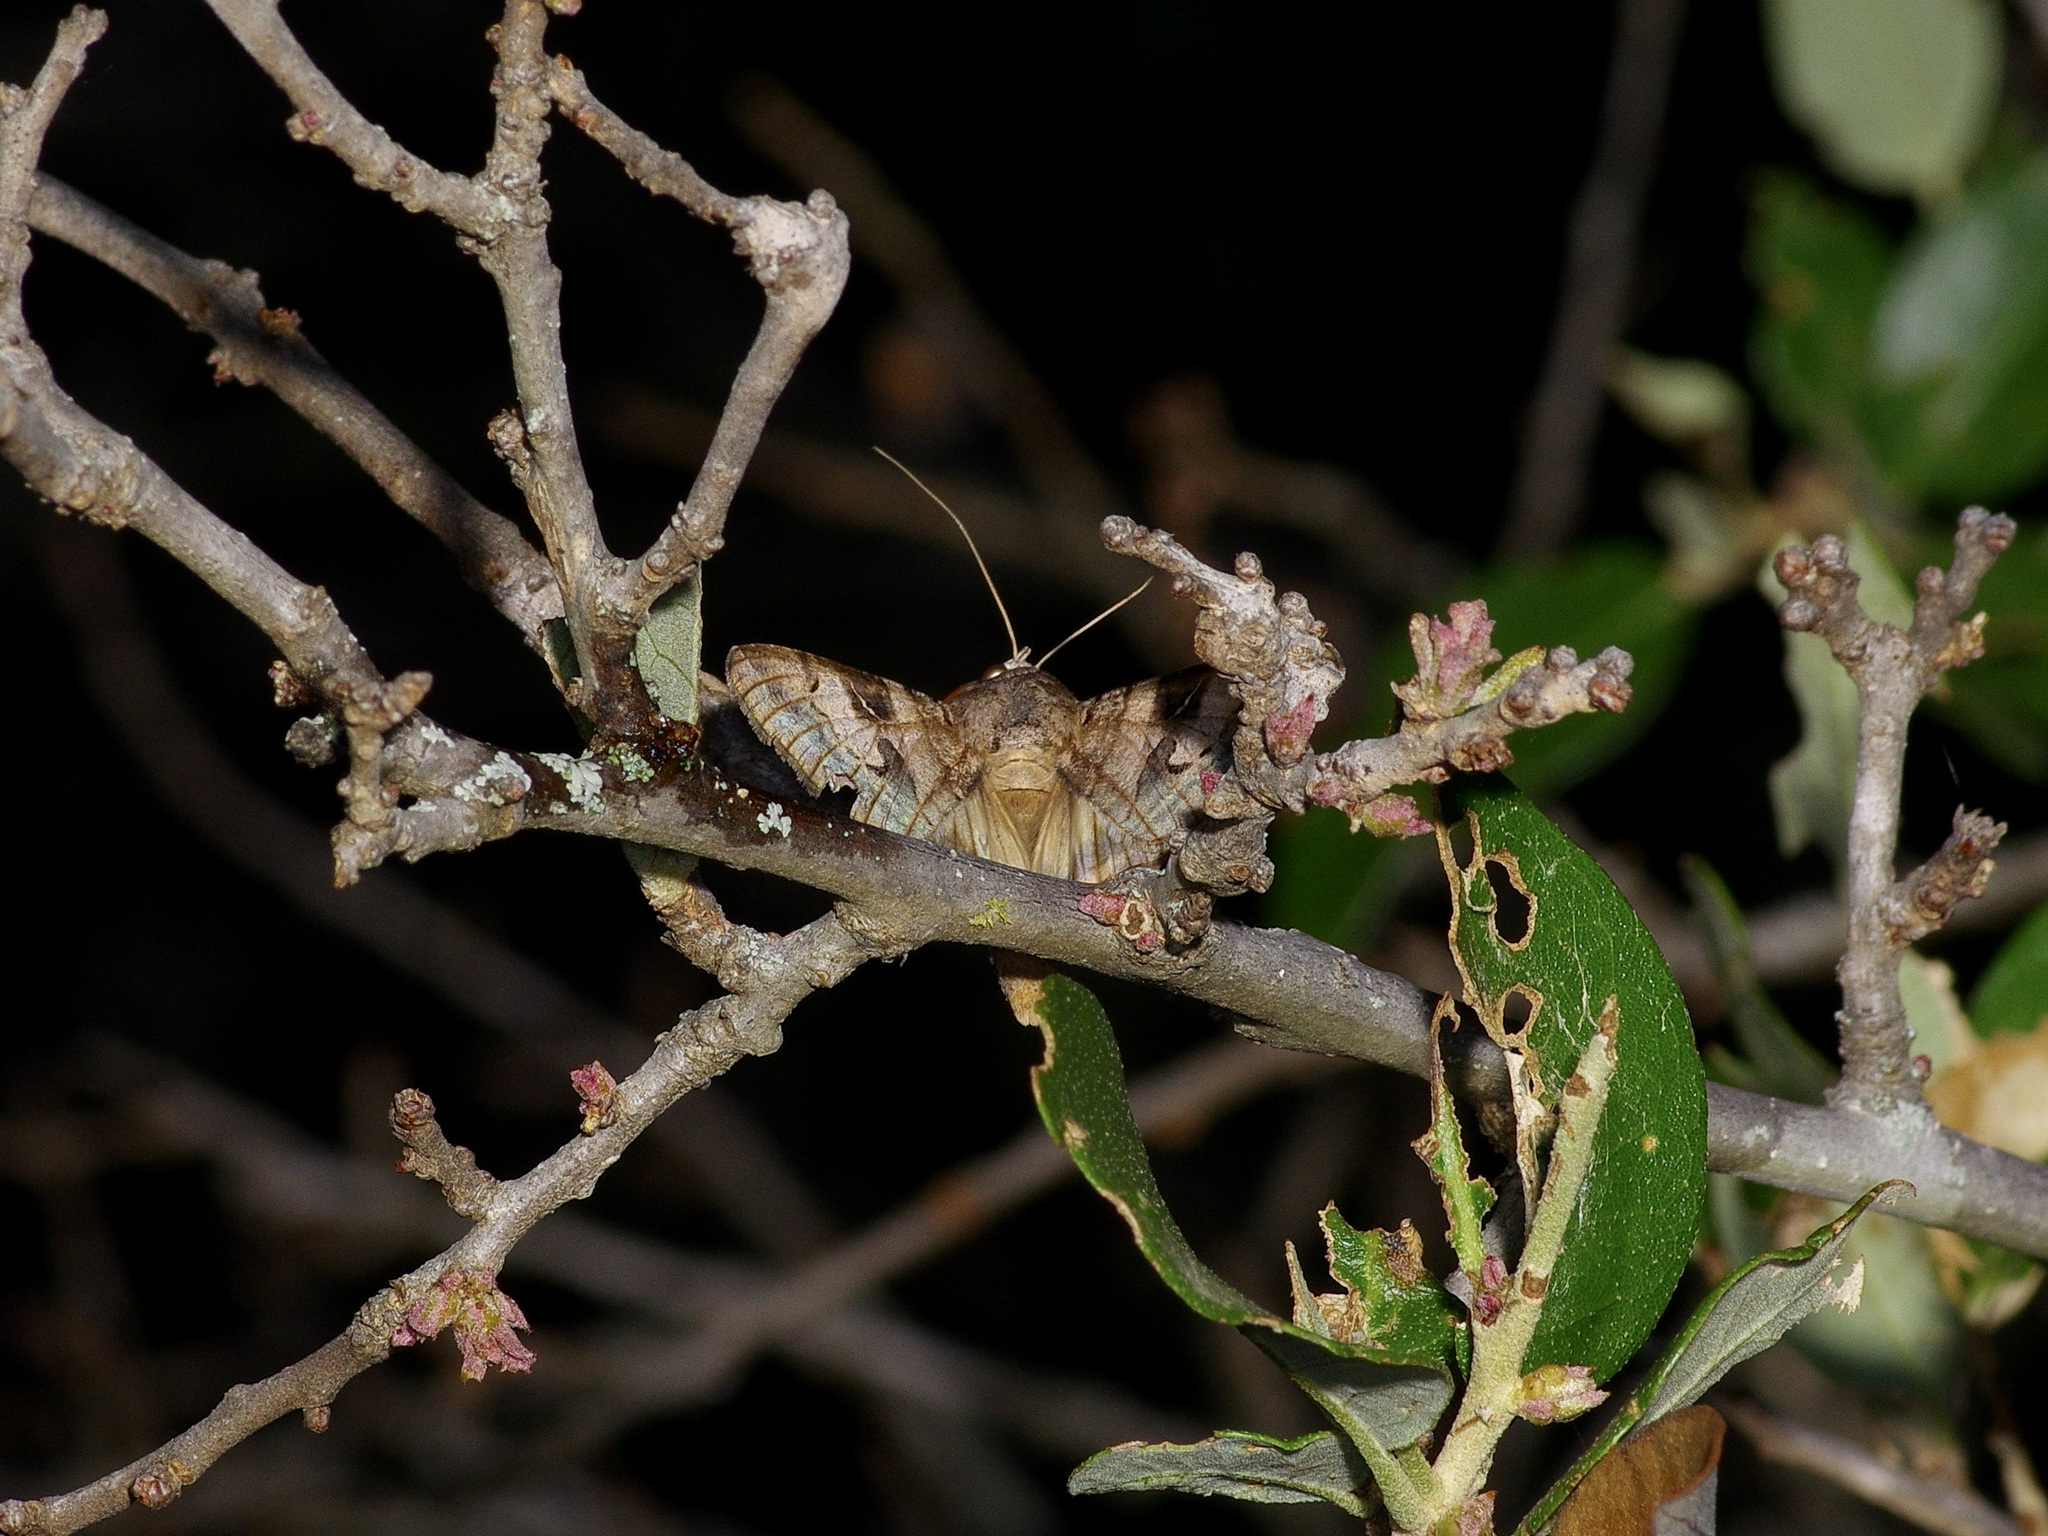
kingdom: Animalia
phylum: Arthropoda
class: Insecta
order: Lepidoptera
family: Erebidae
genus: Melipotis
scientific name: Melipotis indomita
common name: Moth
